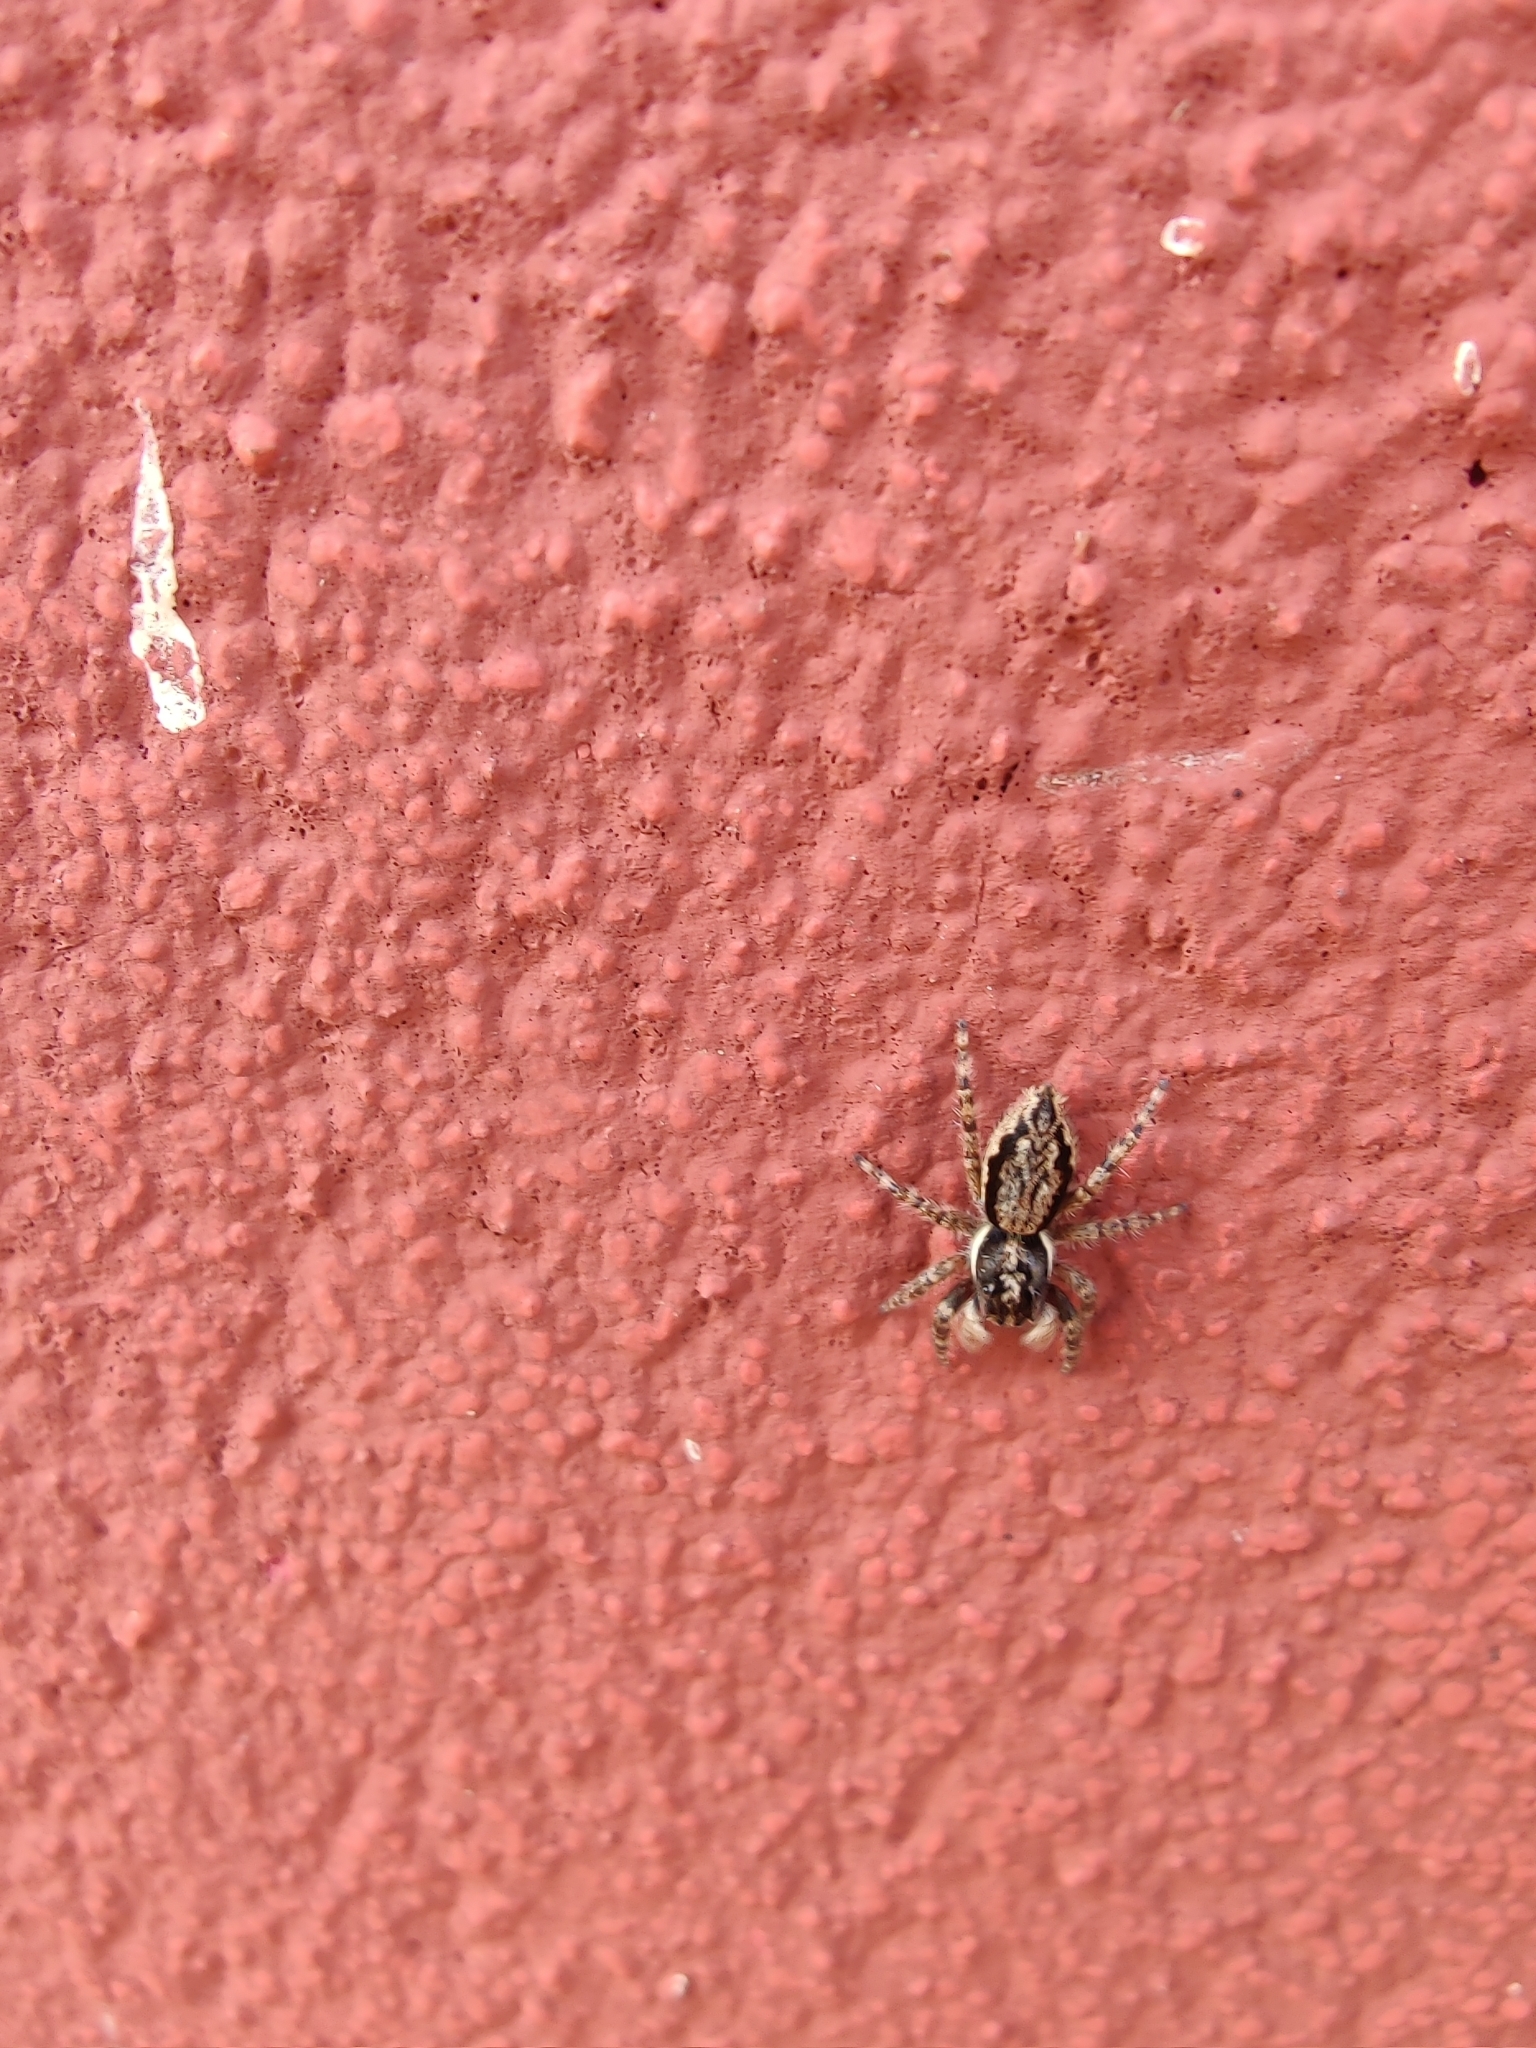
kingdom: Animalia
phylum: Arthropoda
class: Arachnida
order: Araneae
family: Salticidae
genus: Menemerus
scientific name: Menemerus bivittatus
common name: Gray wall jumper
